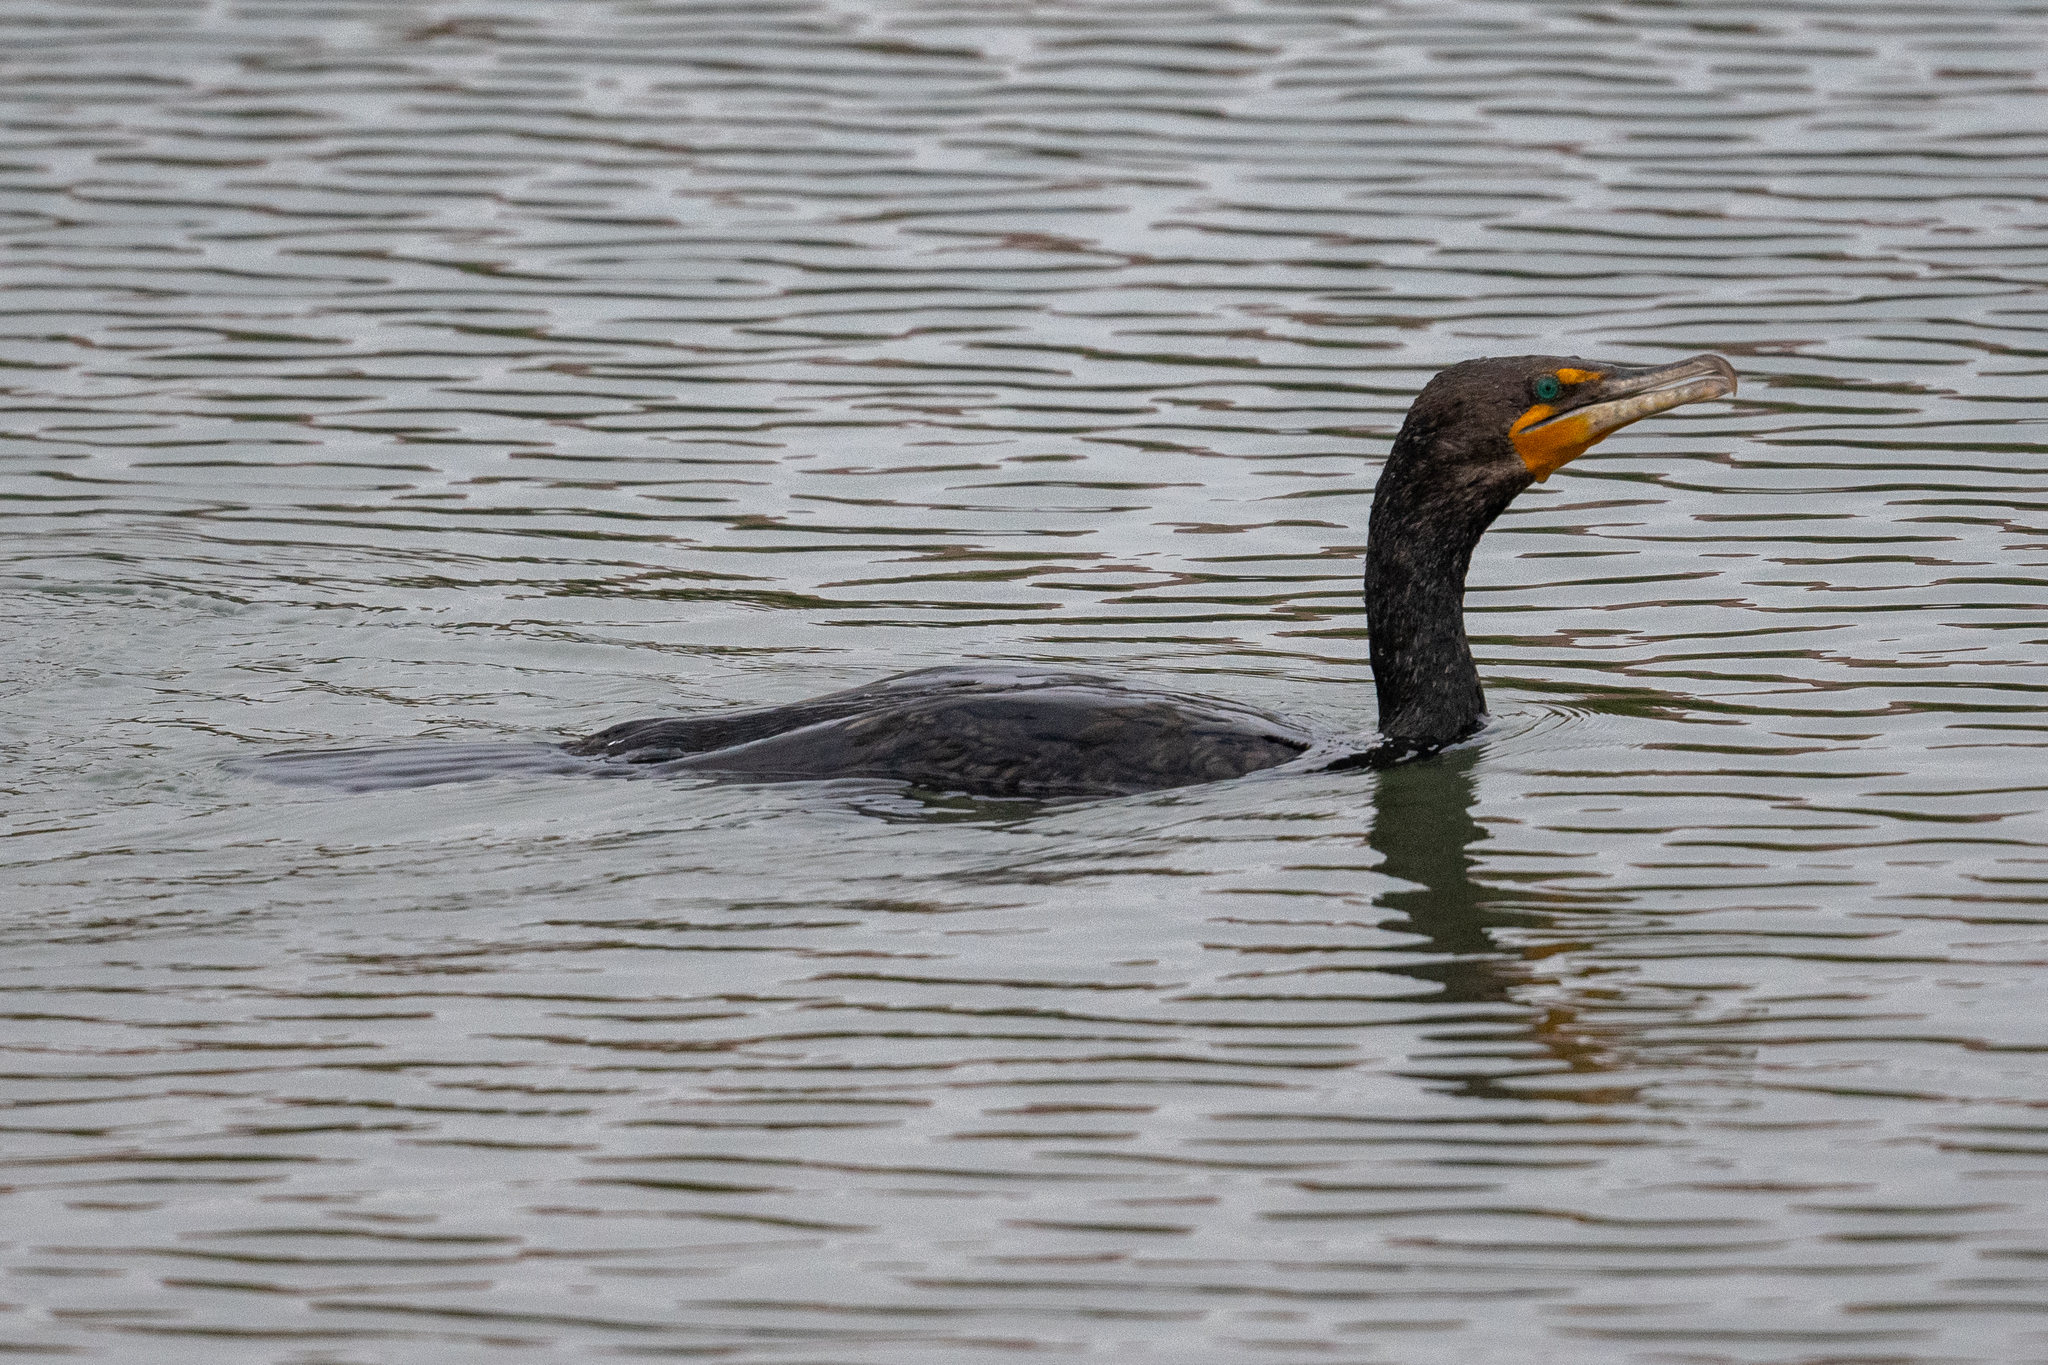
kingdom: Animalia
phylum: Chordata
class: Aves
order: Suliformes
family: Phalacrocoracidae
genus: Phalacrocorax
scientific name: Phalacrocorax auritus
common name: Double-crested cormorant
